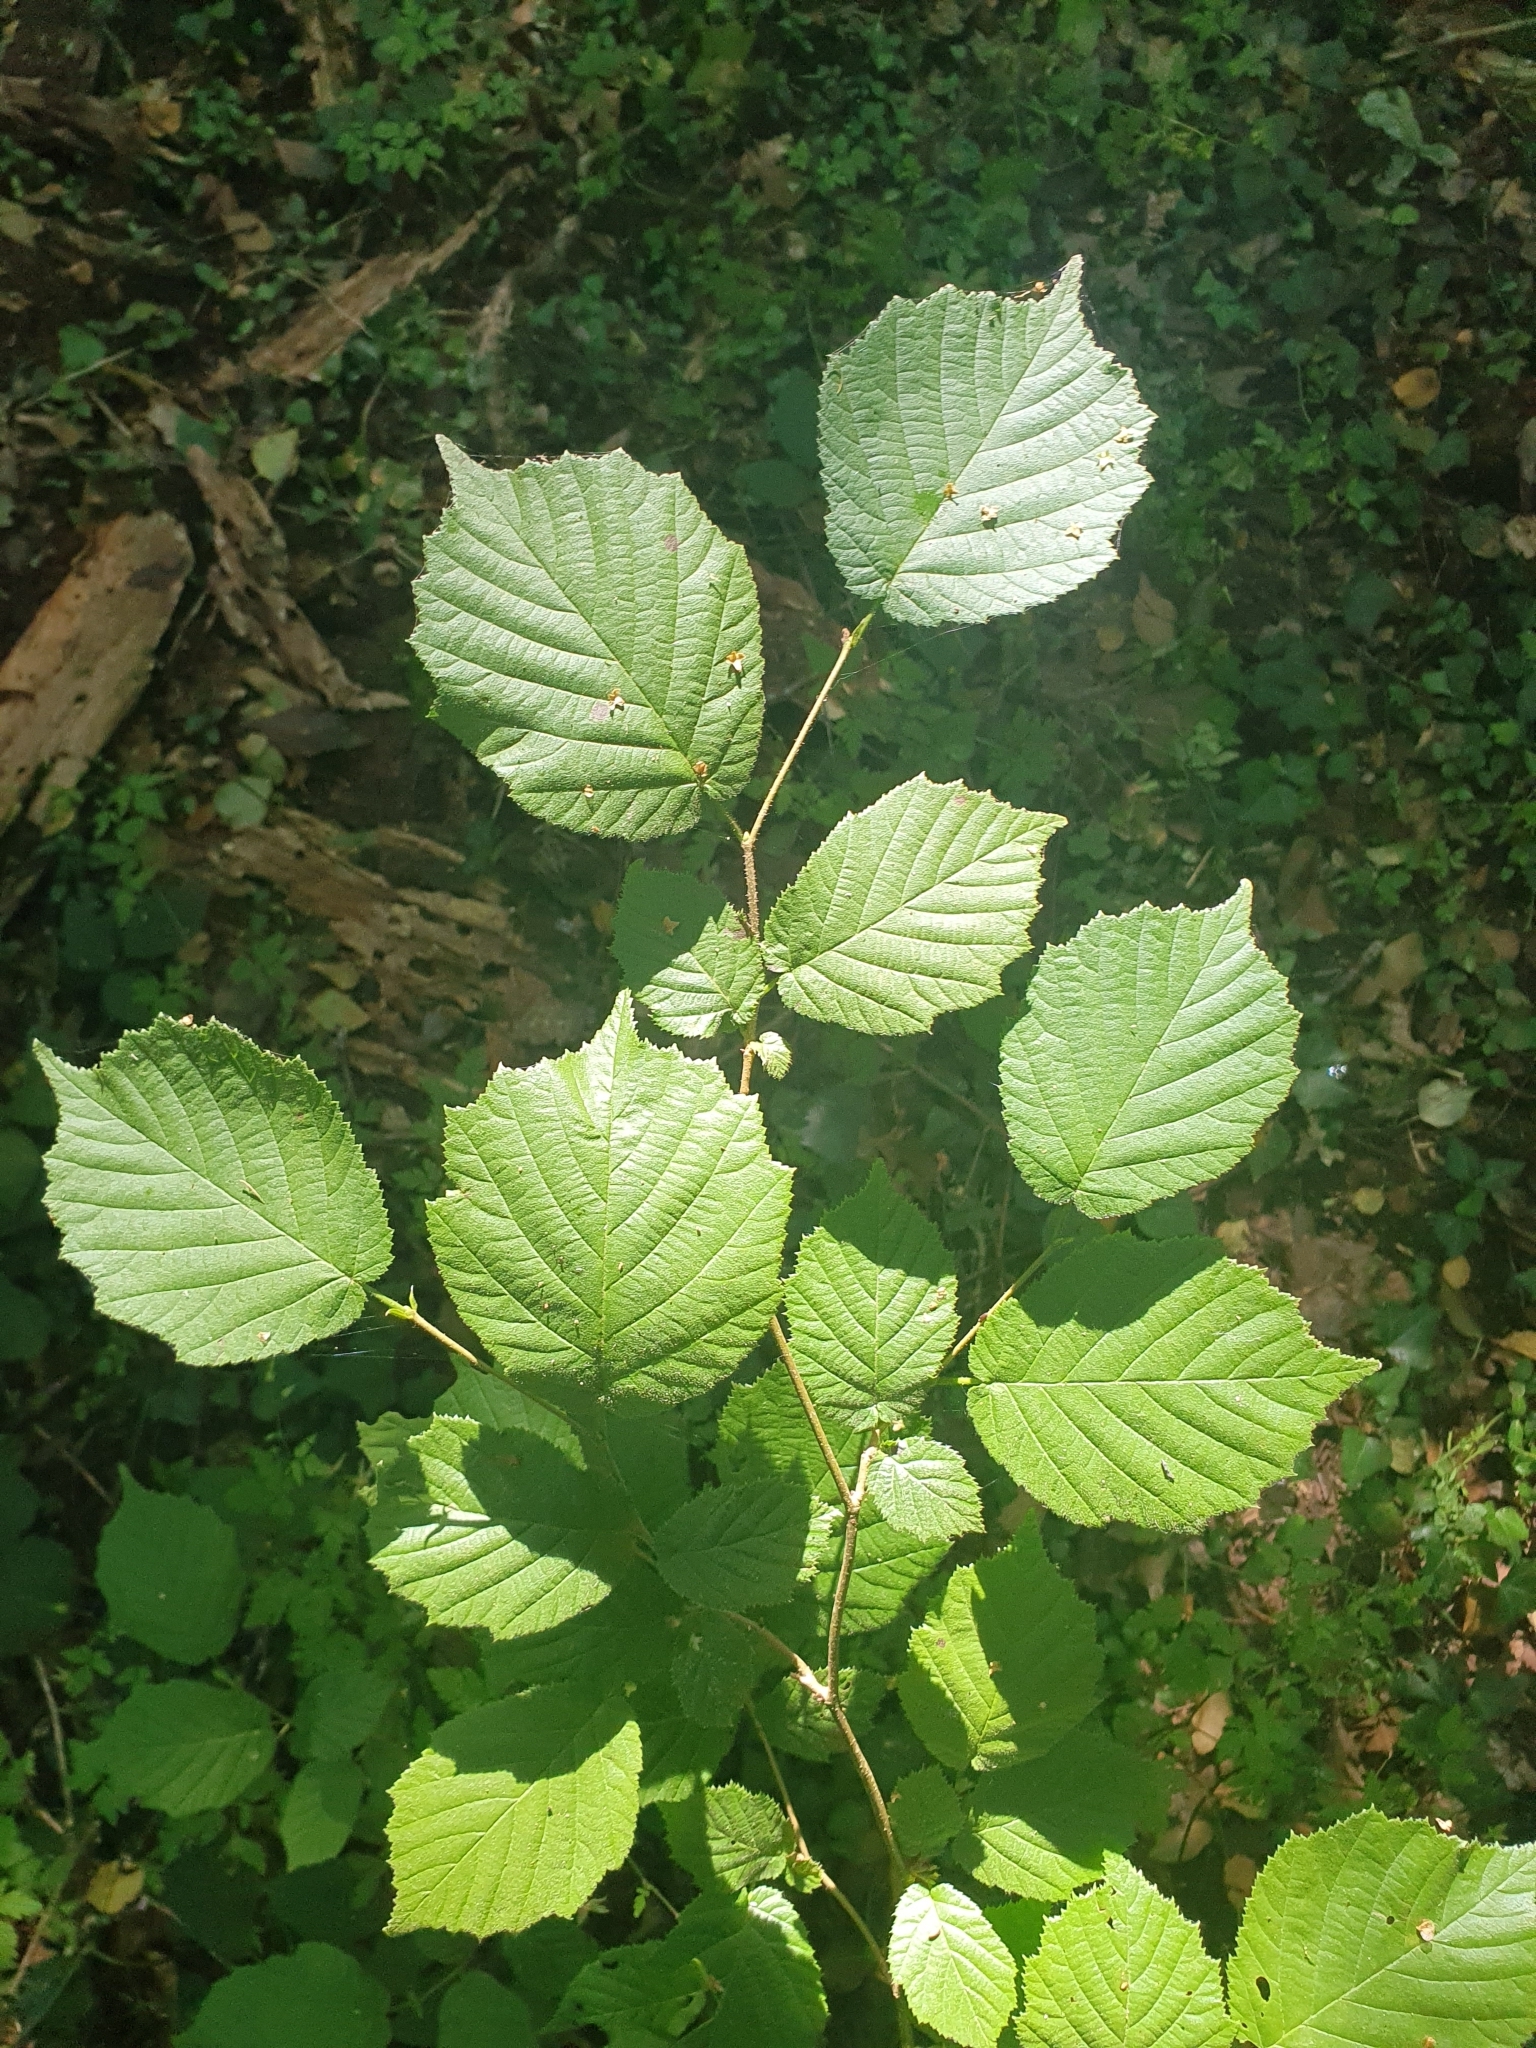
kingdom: Plantae
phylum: Tracheophyta
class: Magnoliopsida
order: Fagales
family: Betulaceae
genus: Corylus
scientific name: Corylus avellana
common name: European hazel
